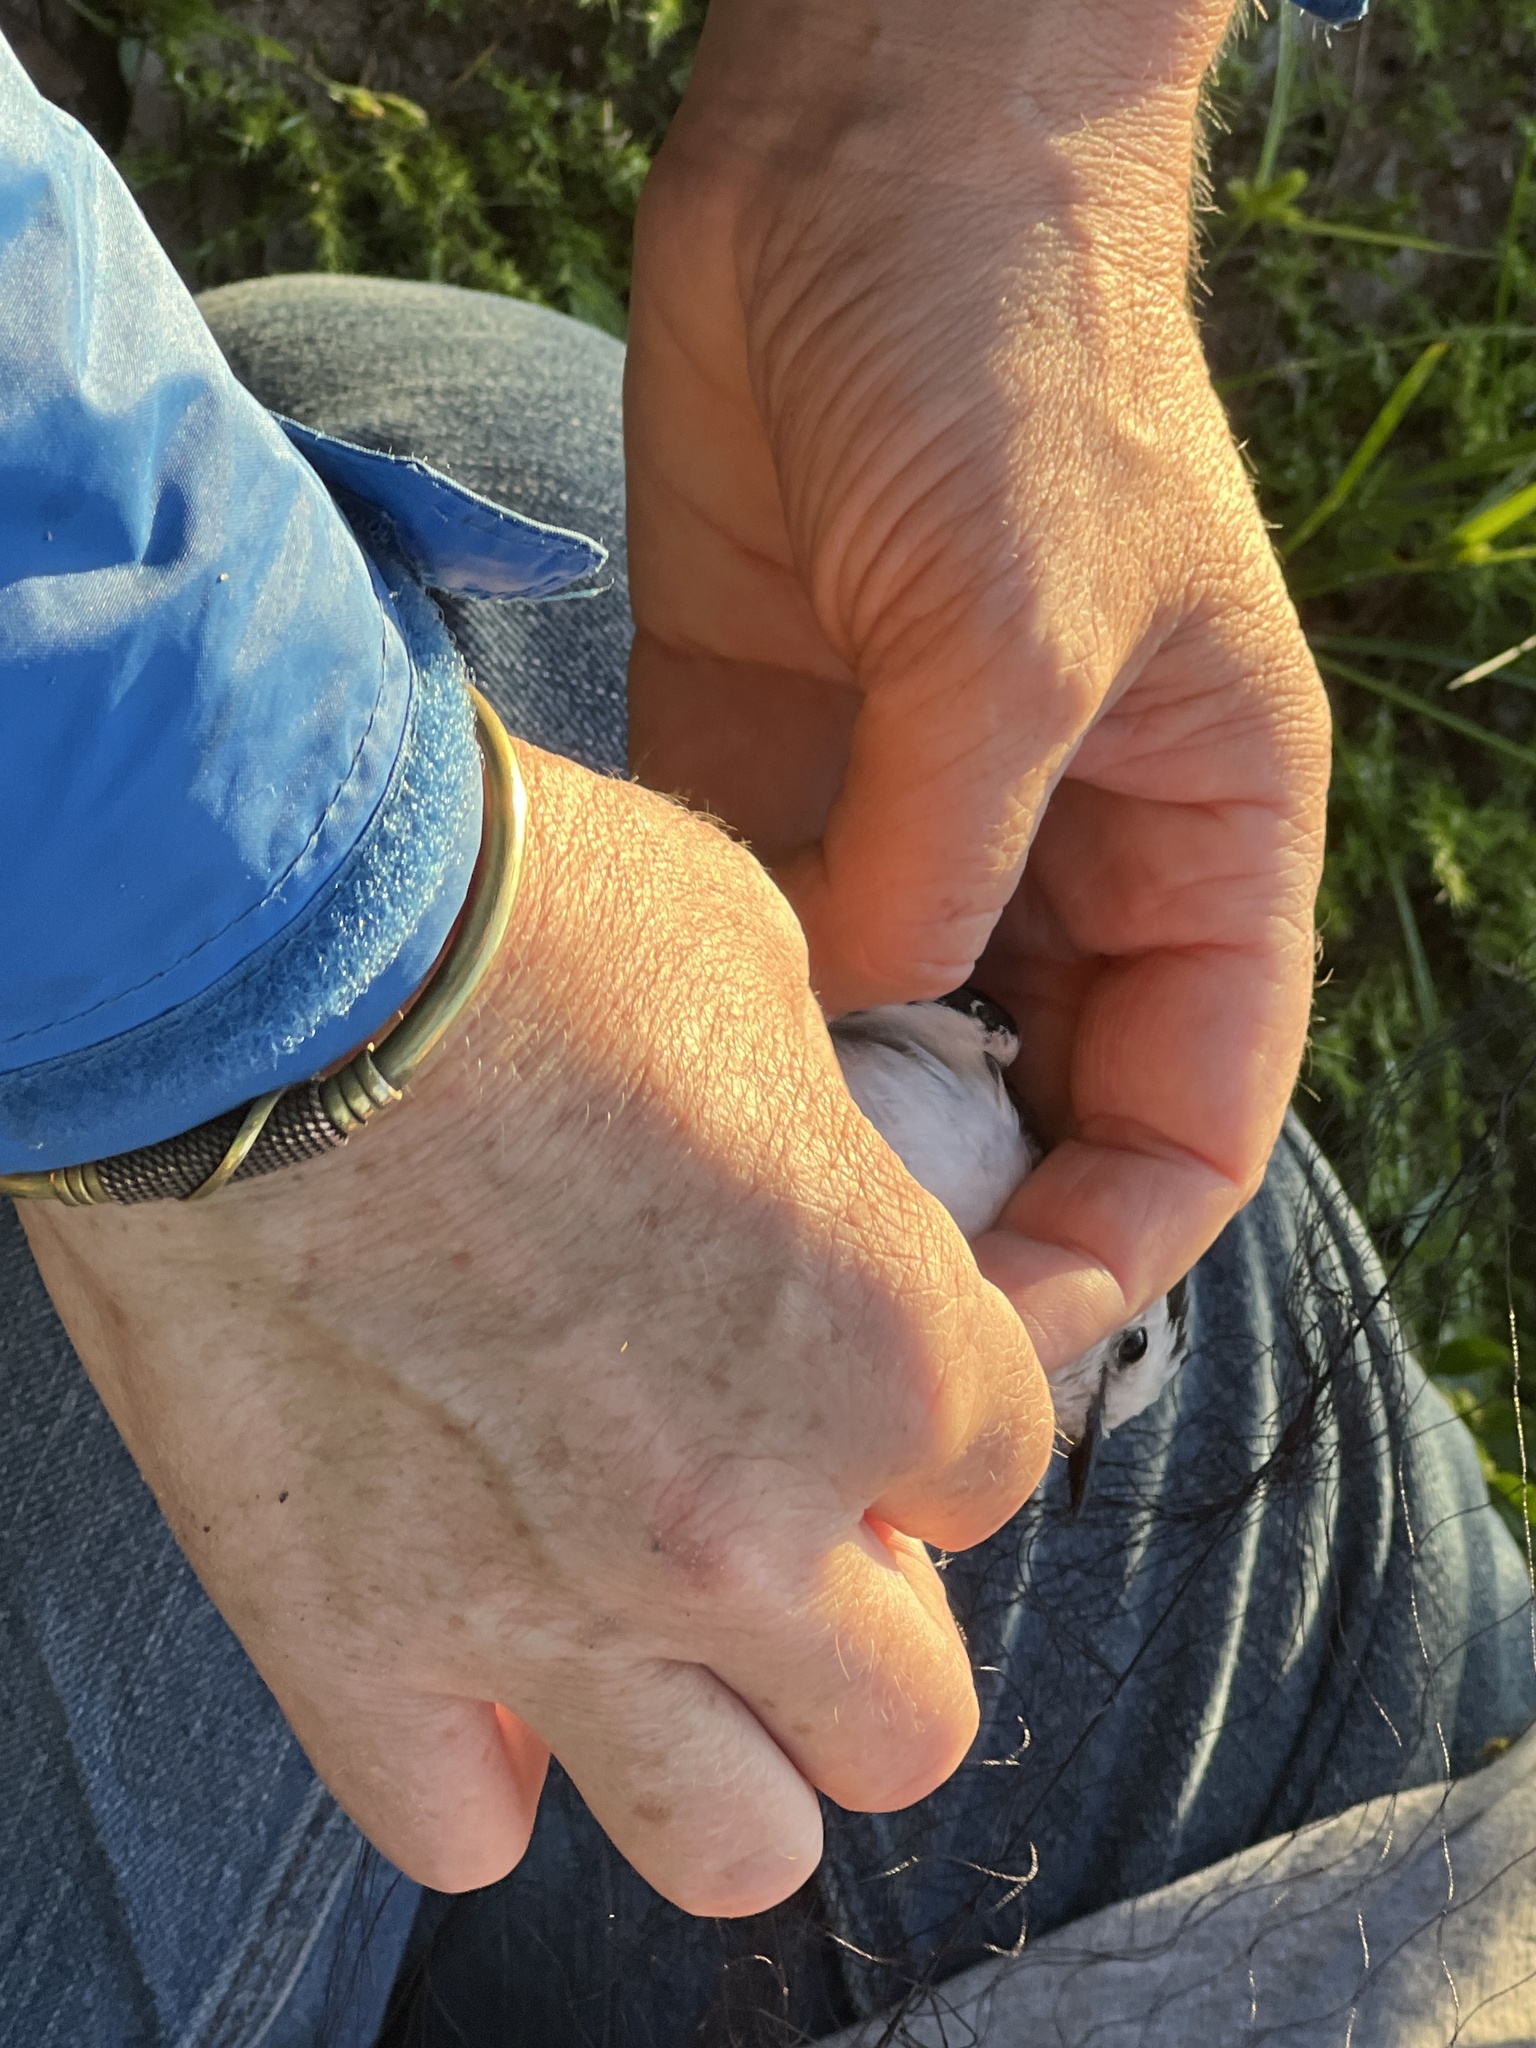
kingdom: Animalia
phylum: Chordata
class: Aves
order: Passeriformes
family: Tyrannidae
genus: Fluvicola
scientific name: Fluvicola pica
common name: Pied water-tyrant
